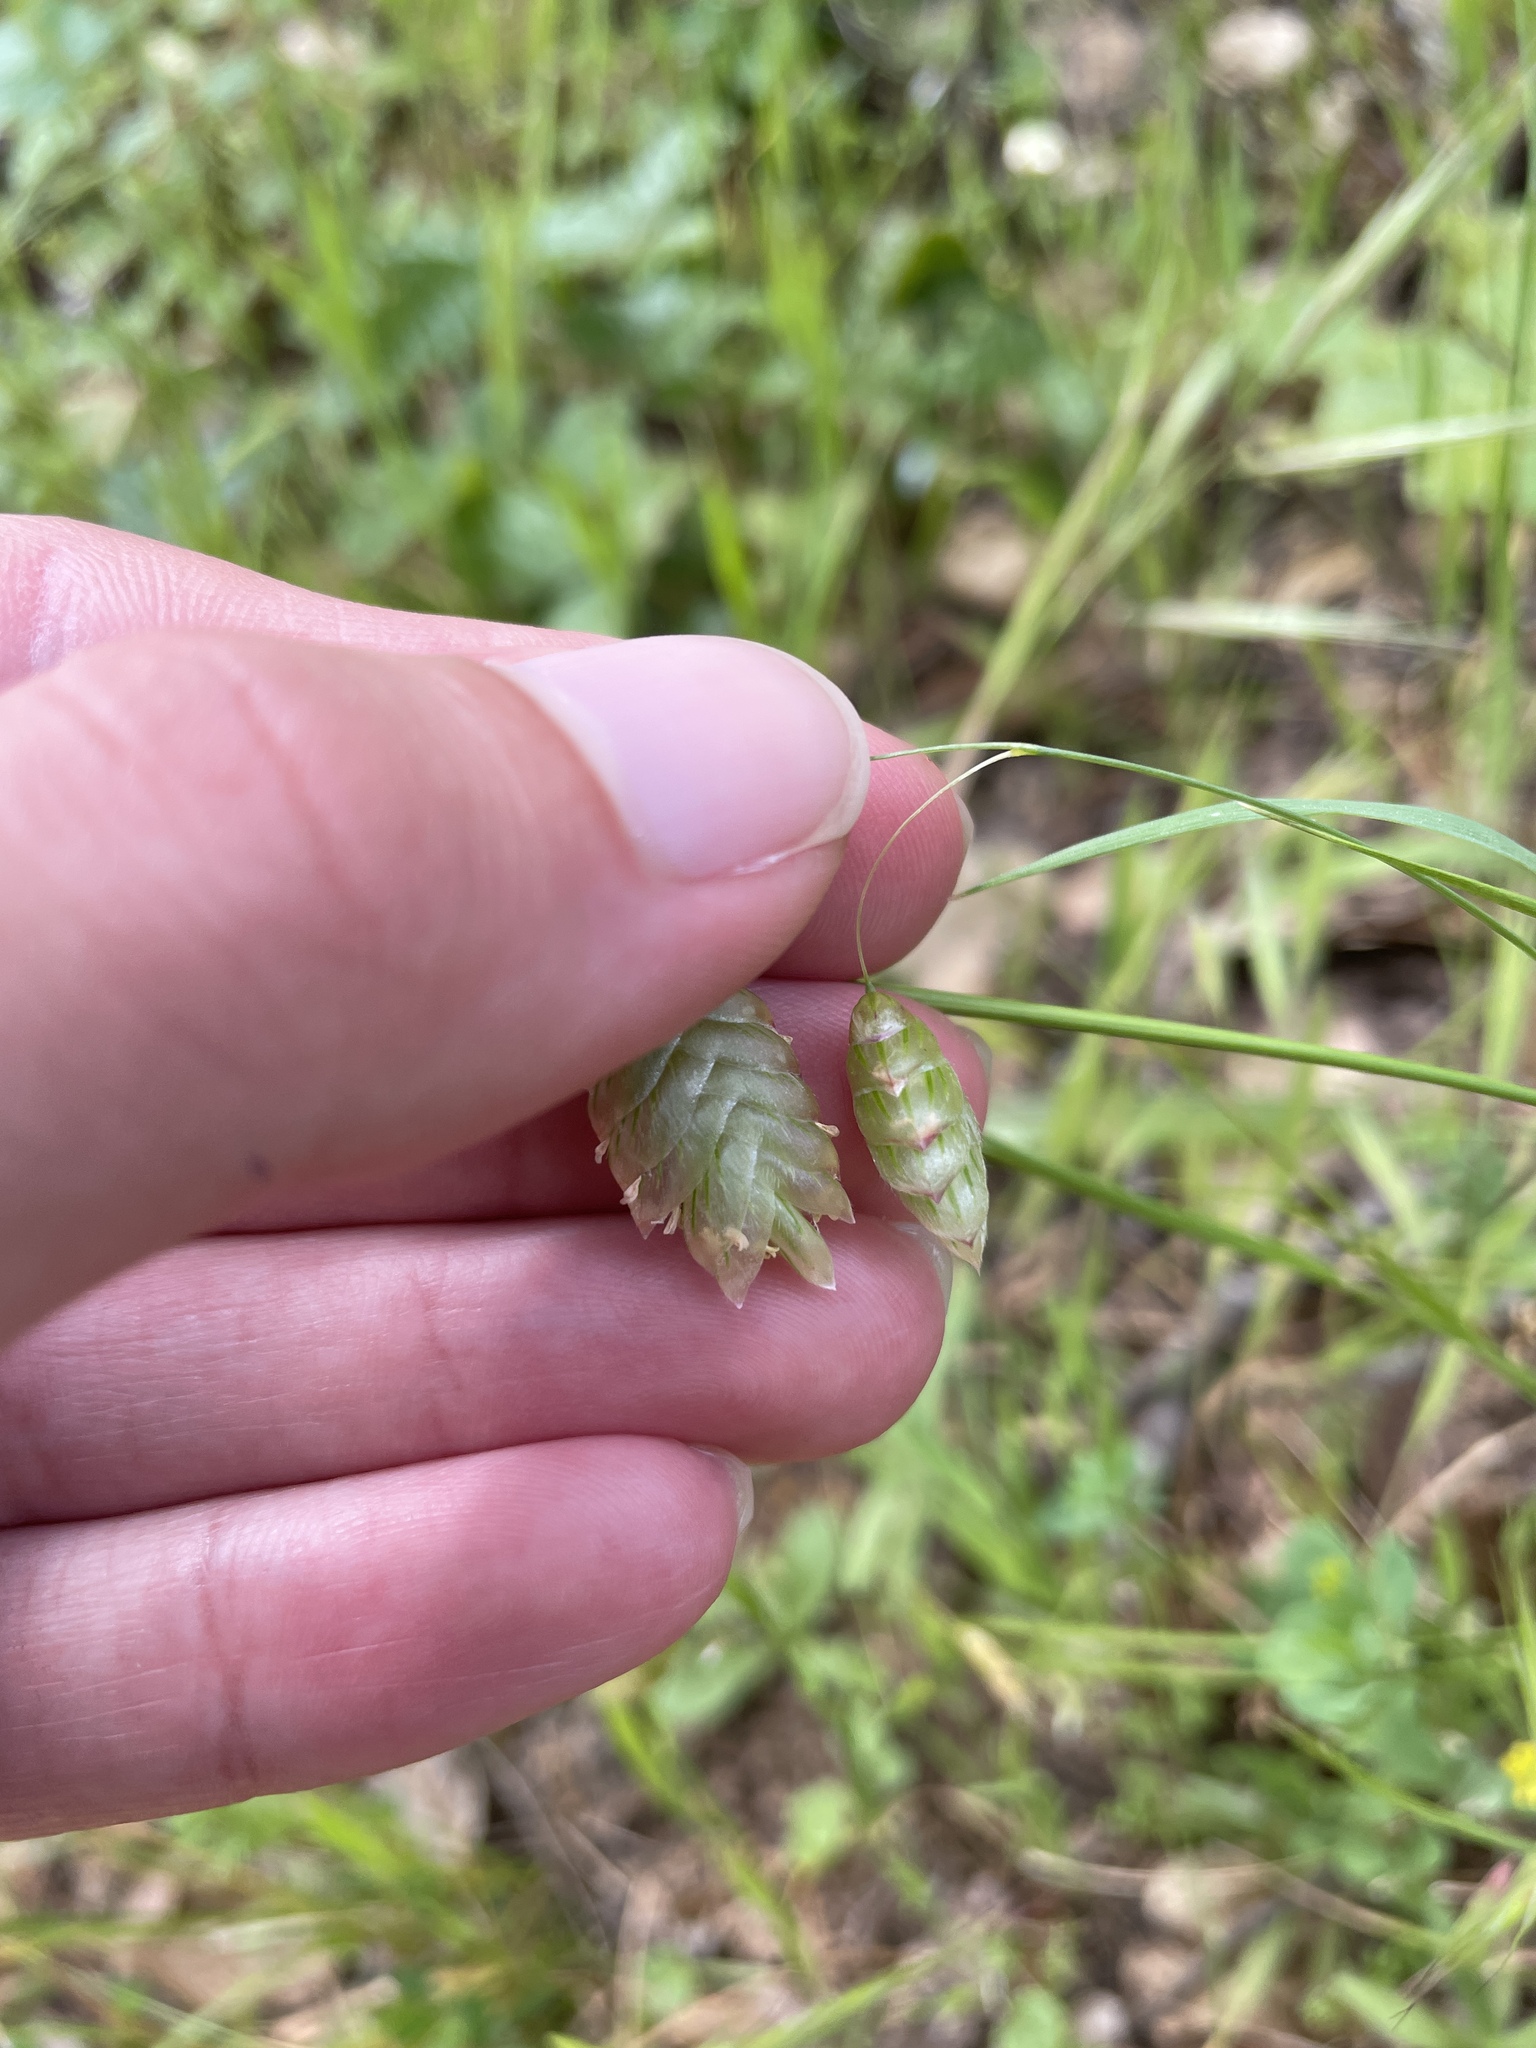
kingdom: Plantae
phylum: Tracheophyta
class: Liliopsida
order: Poales
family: Poaceae
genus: Briza
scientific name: Briza maxima
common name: Big quakinggrass
